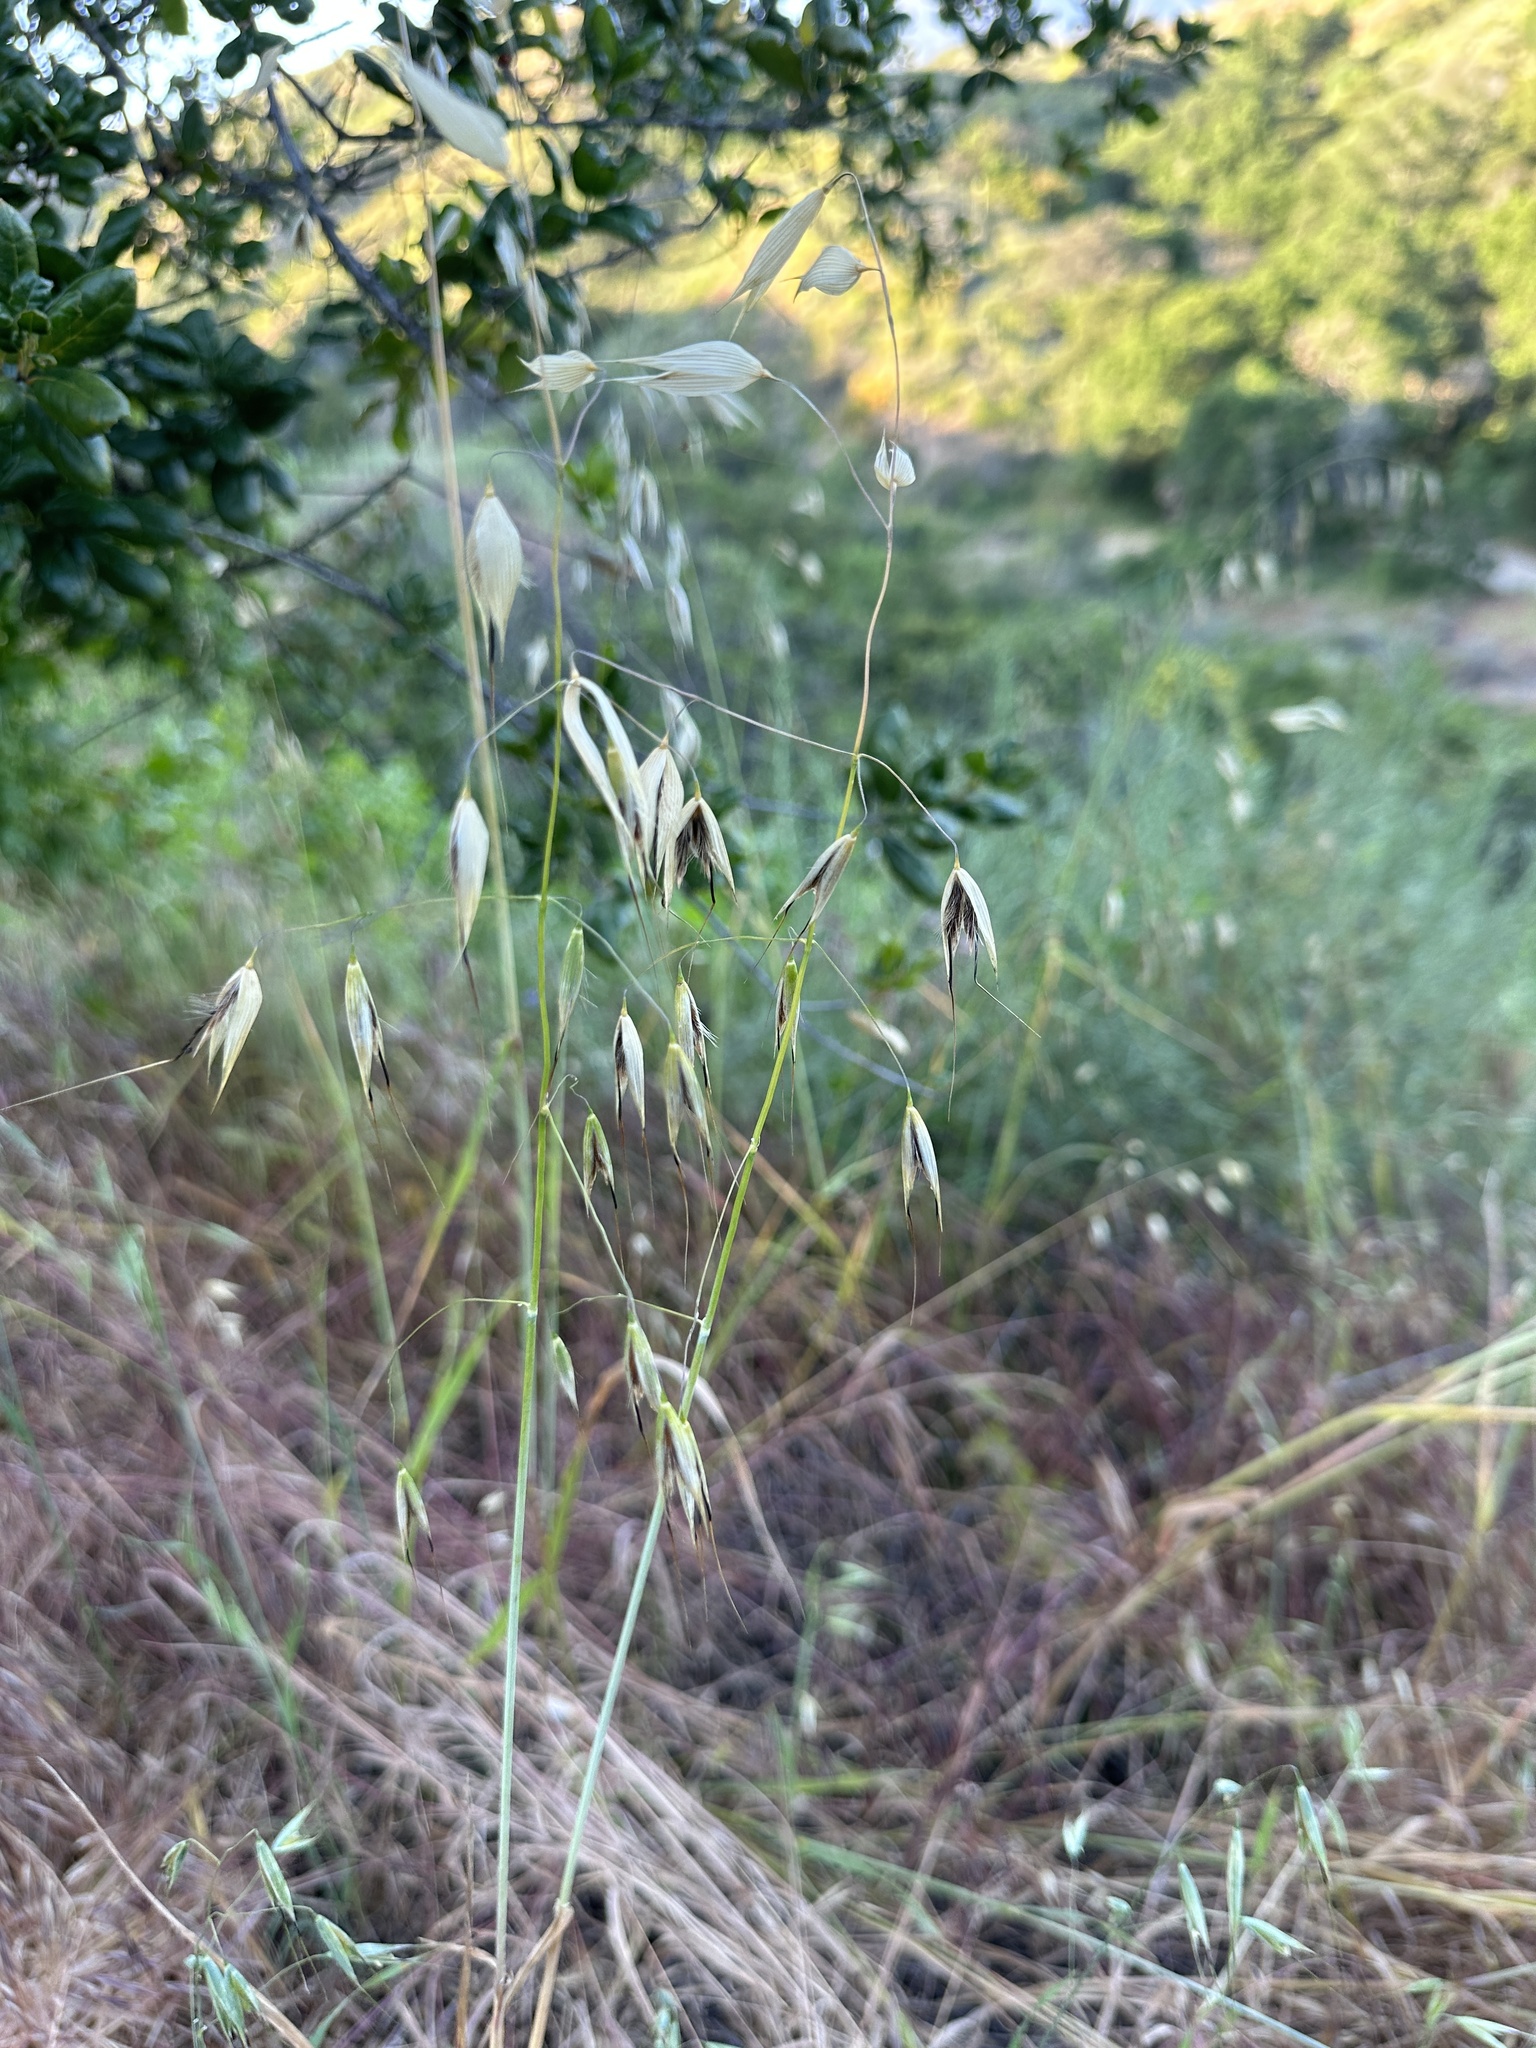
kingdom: Plantae
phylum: Tracheophyta
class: Liliopsida
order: Poales
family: Poaceae
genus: Avena
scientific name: Avena fatua
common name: Wild oat
